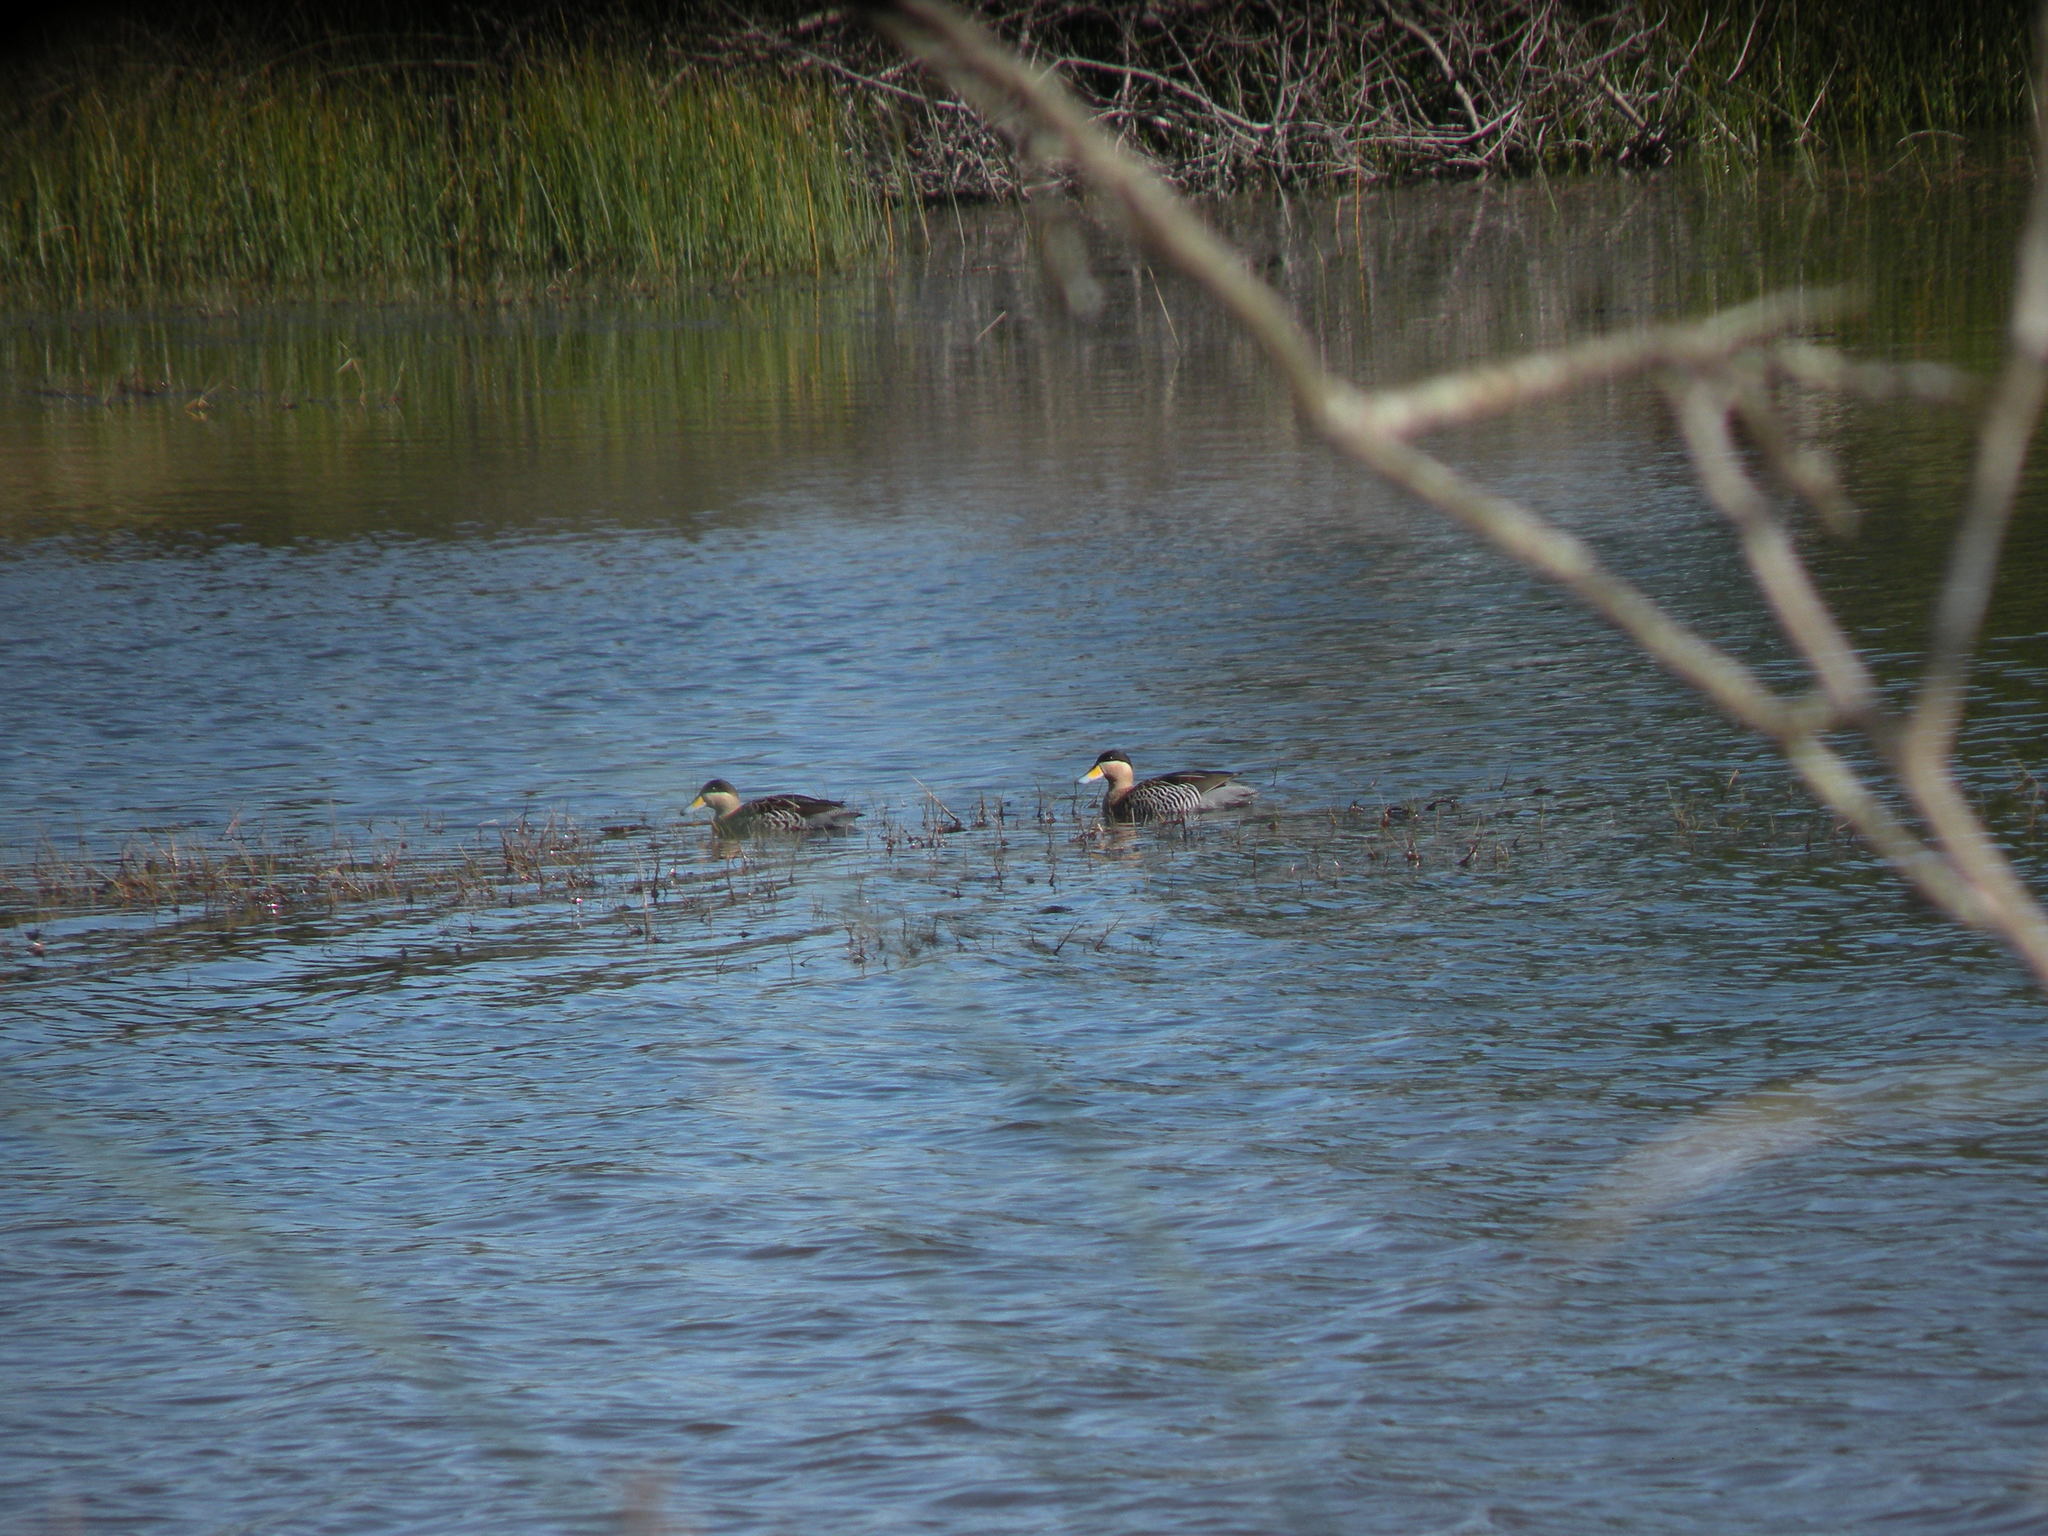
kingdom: Animalia
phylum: Chordata
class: Aves
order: Anseriformes
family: Anatidae
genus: Spatula
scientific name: Spatula versicolor
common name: Silver teal
